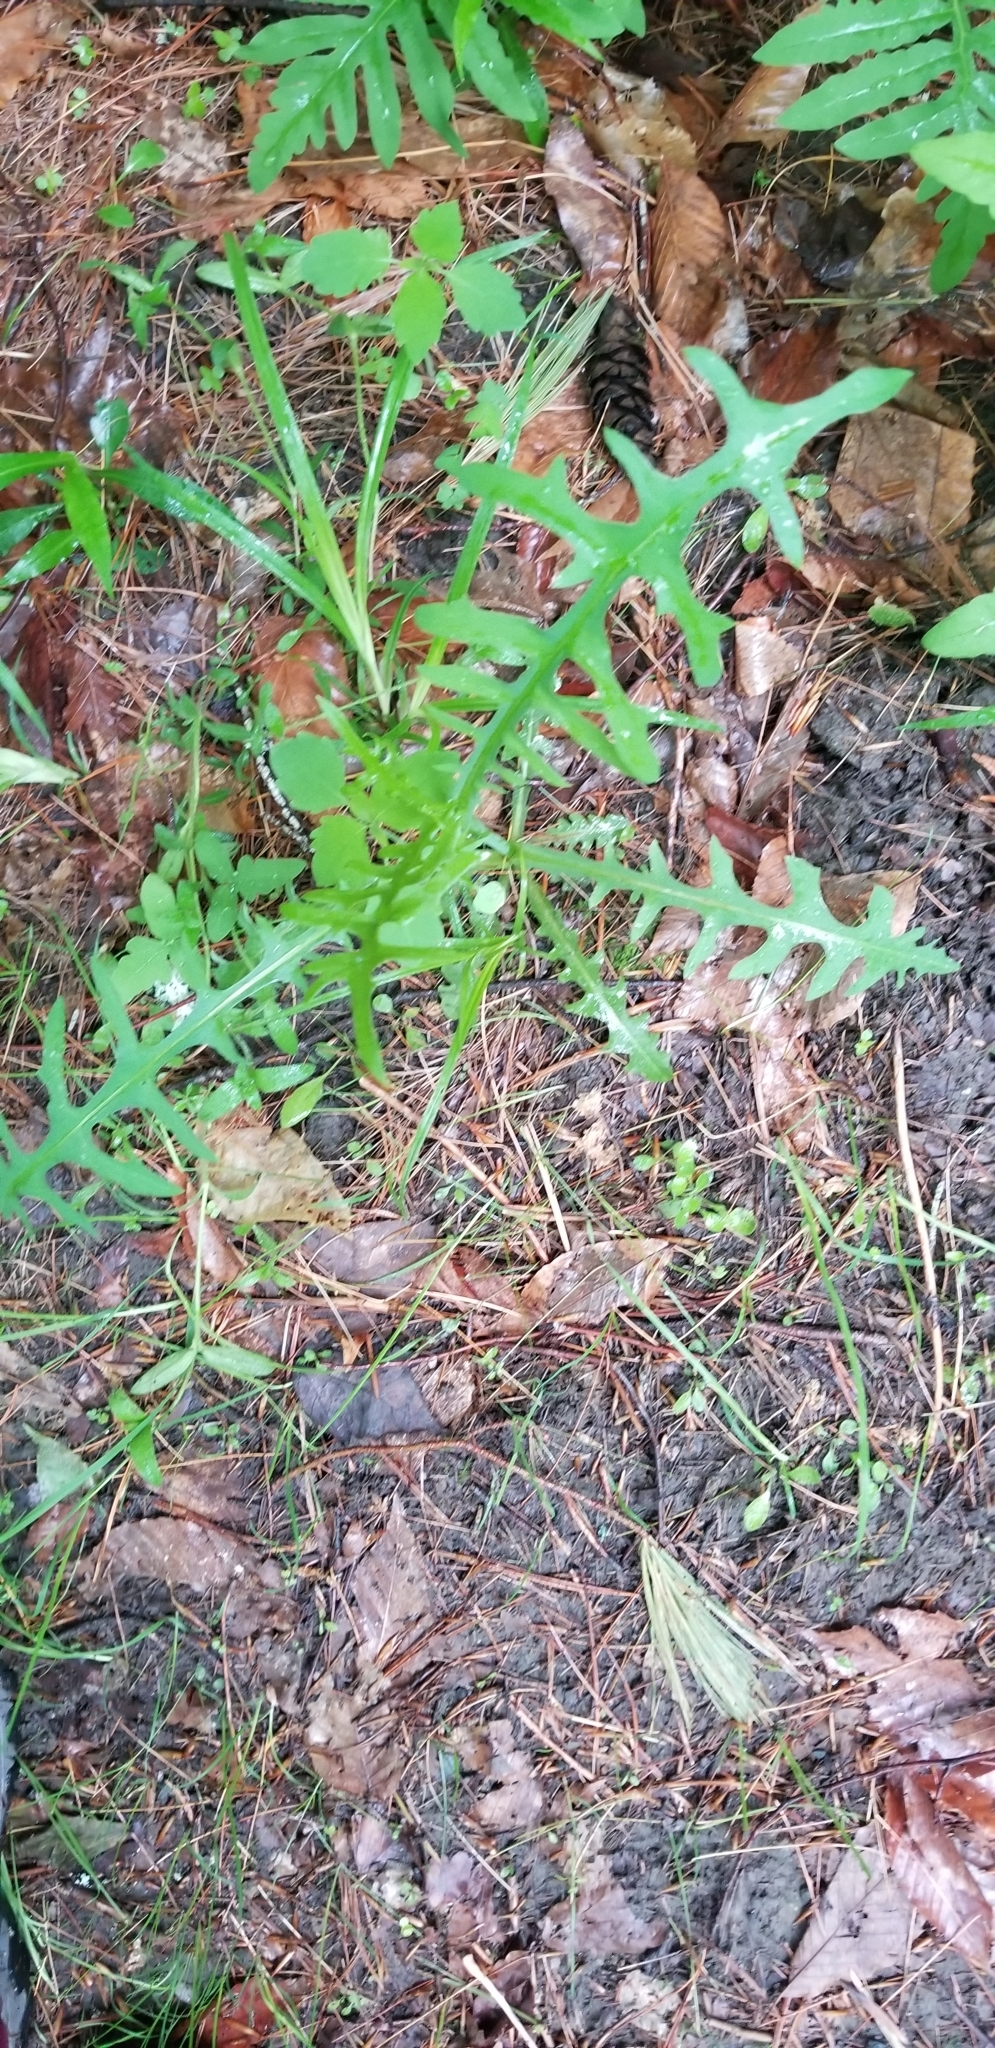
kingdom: Plantae
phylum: Tracheophyta
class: Magnoliopsida
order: Asterales
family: Asteraceae
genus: Lactuca
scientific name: Lactuca canadensis
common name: Canada lettuce
